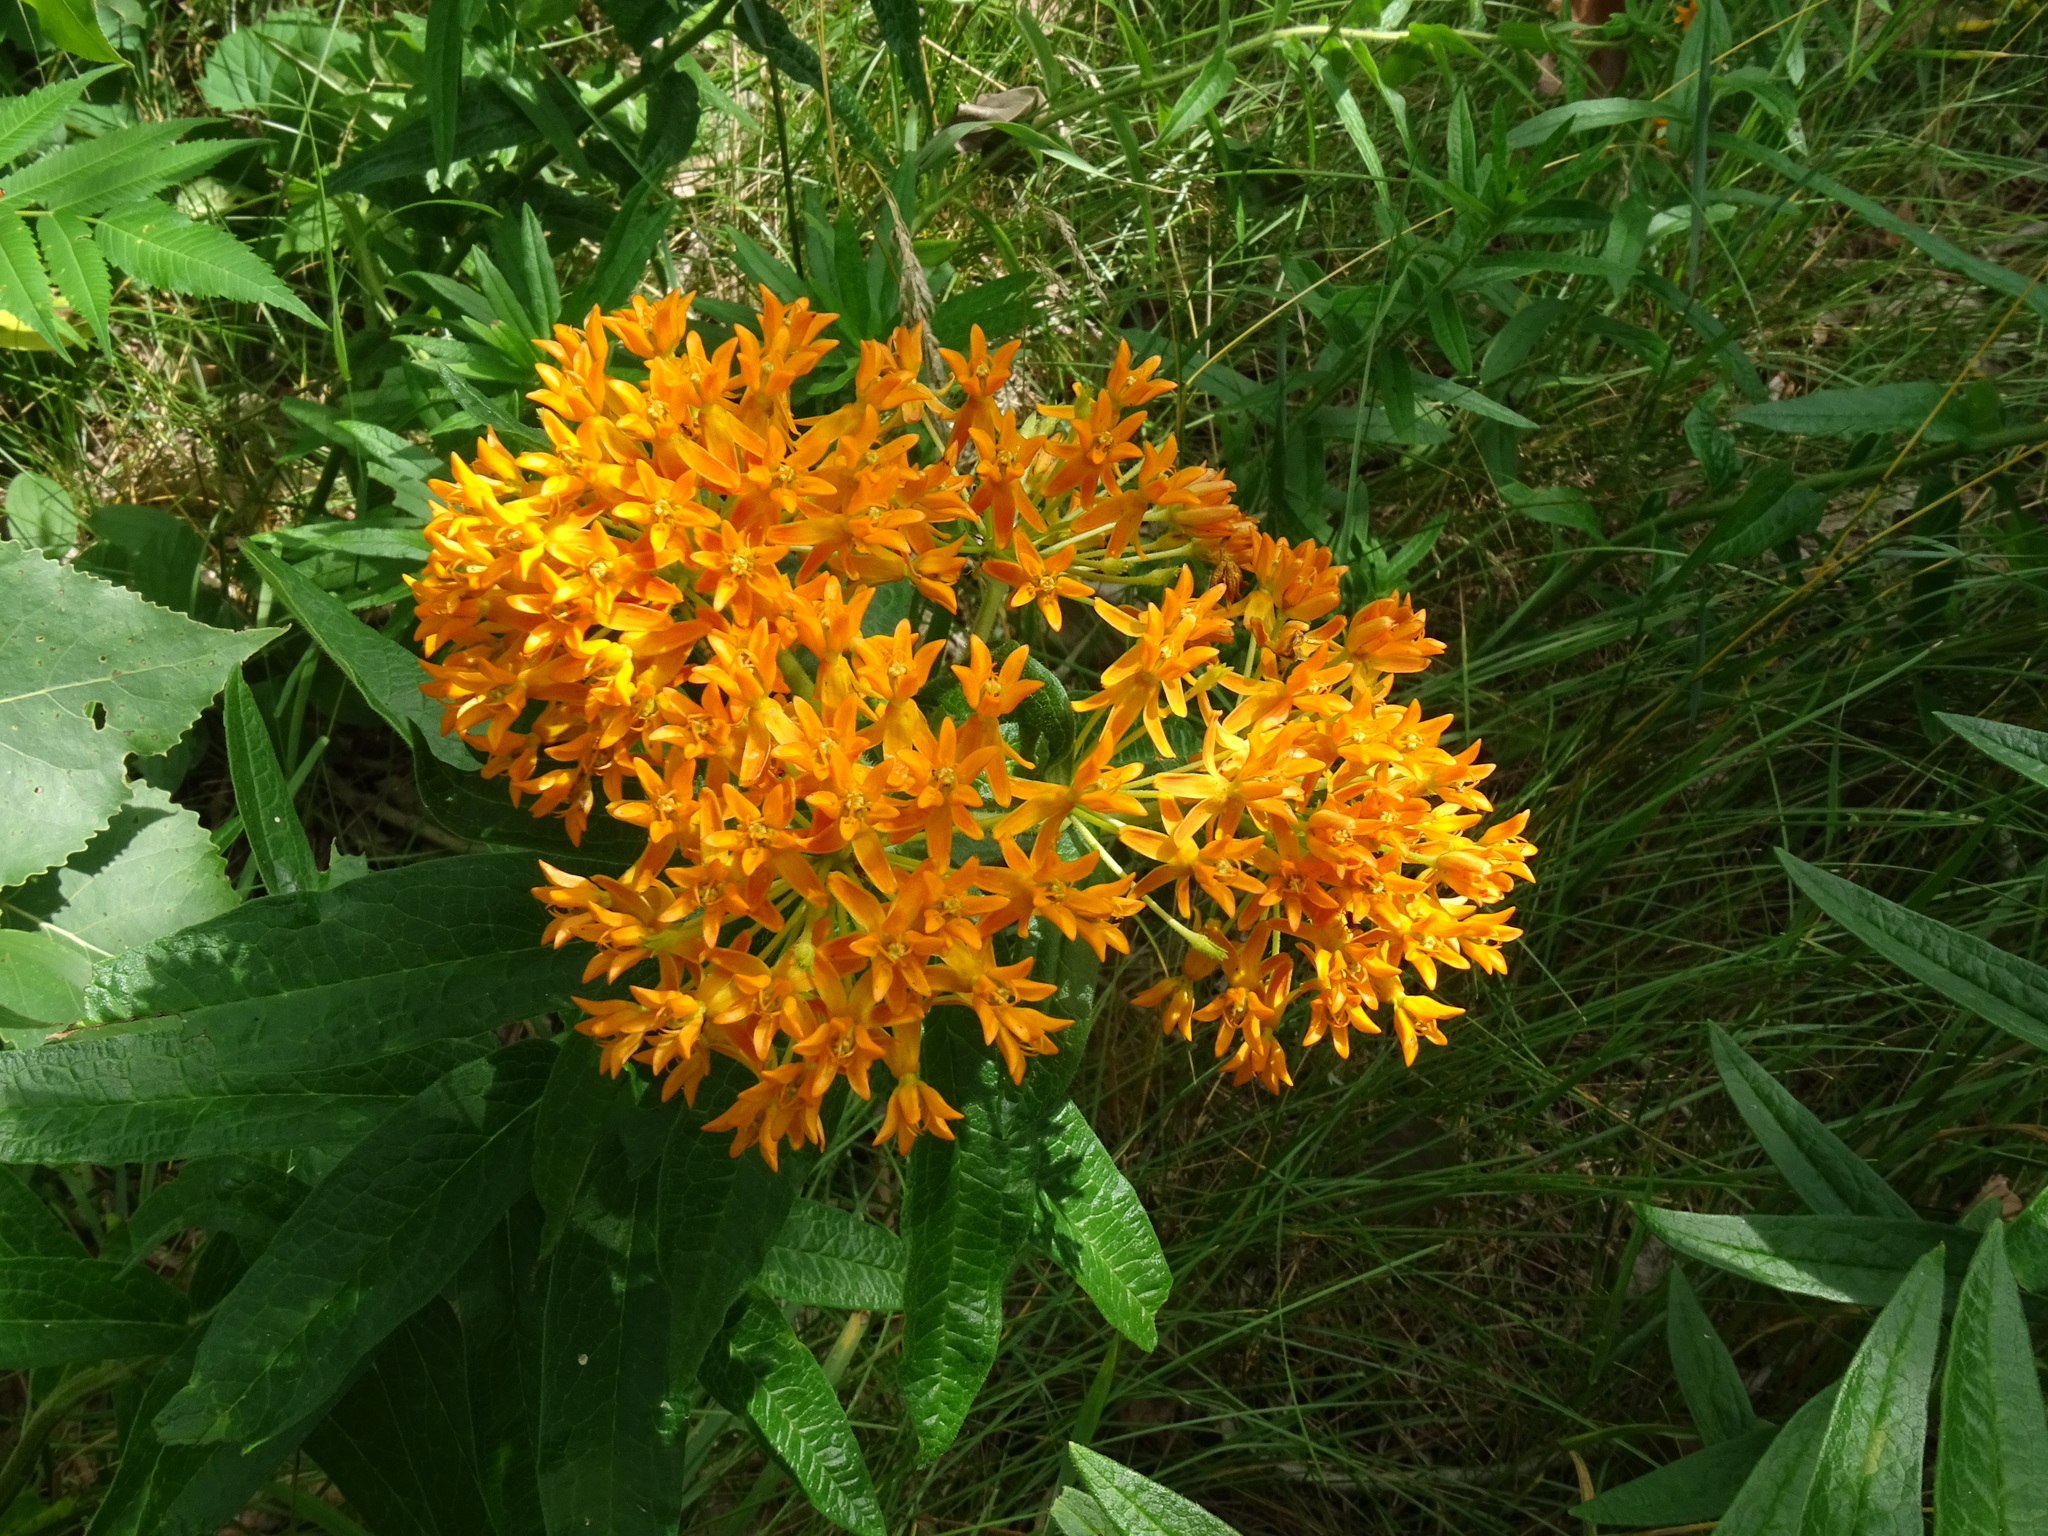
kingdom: Plantae
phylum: Tracheophyta
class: Magnoliopsida
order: Gentianales
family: Apocynaceae
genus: Asclepias
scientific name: Asclepias tuberosa
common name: Butterfly milkweed
